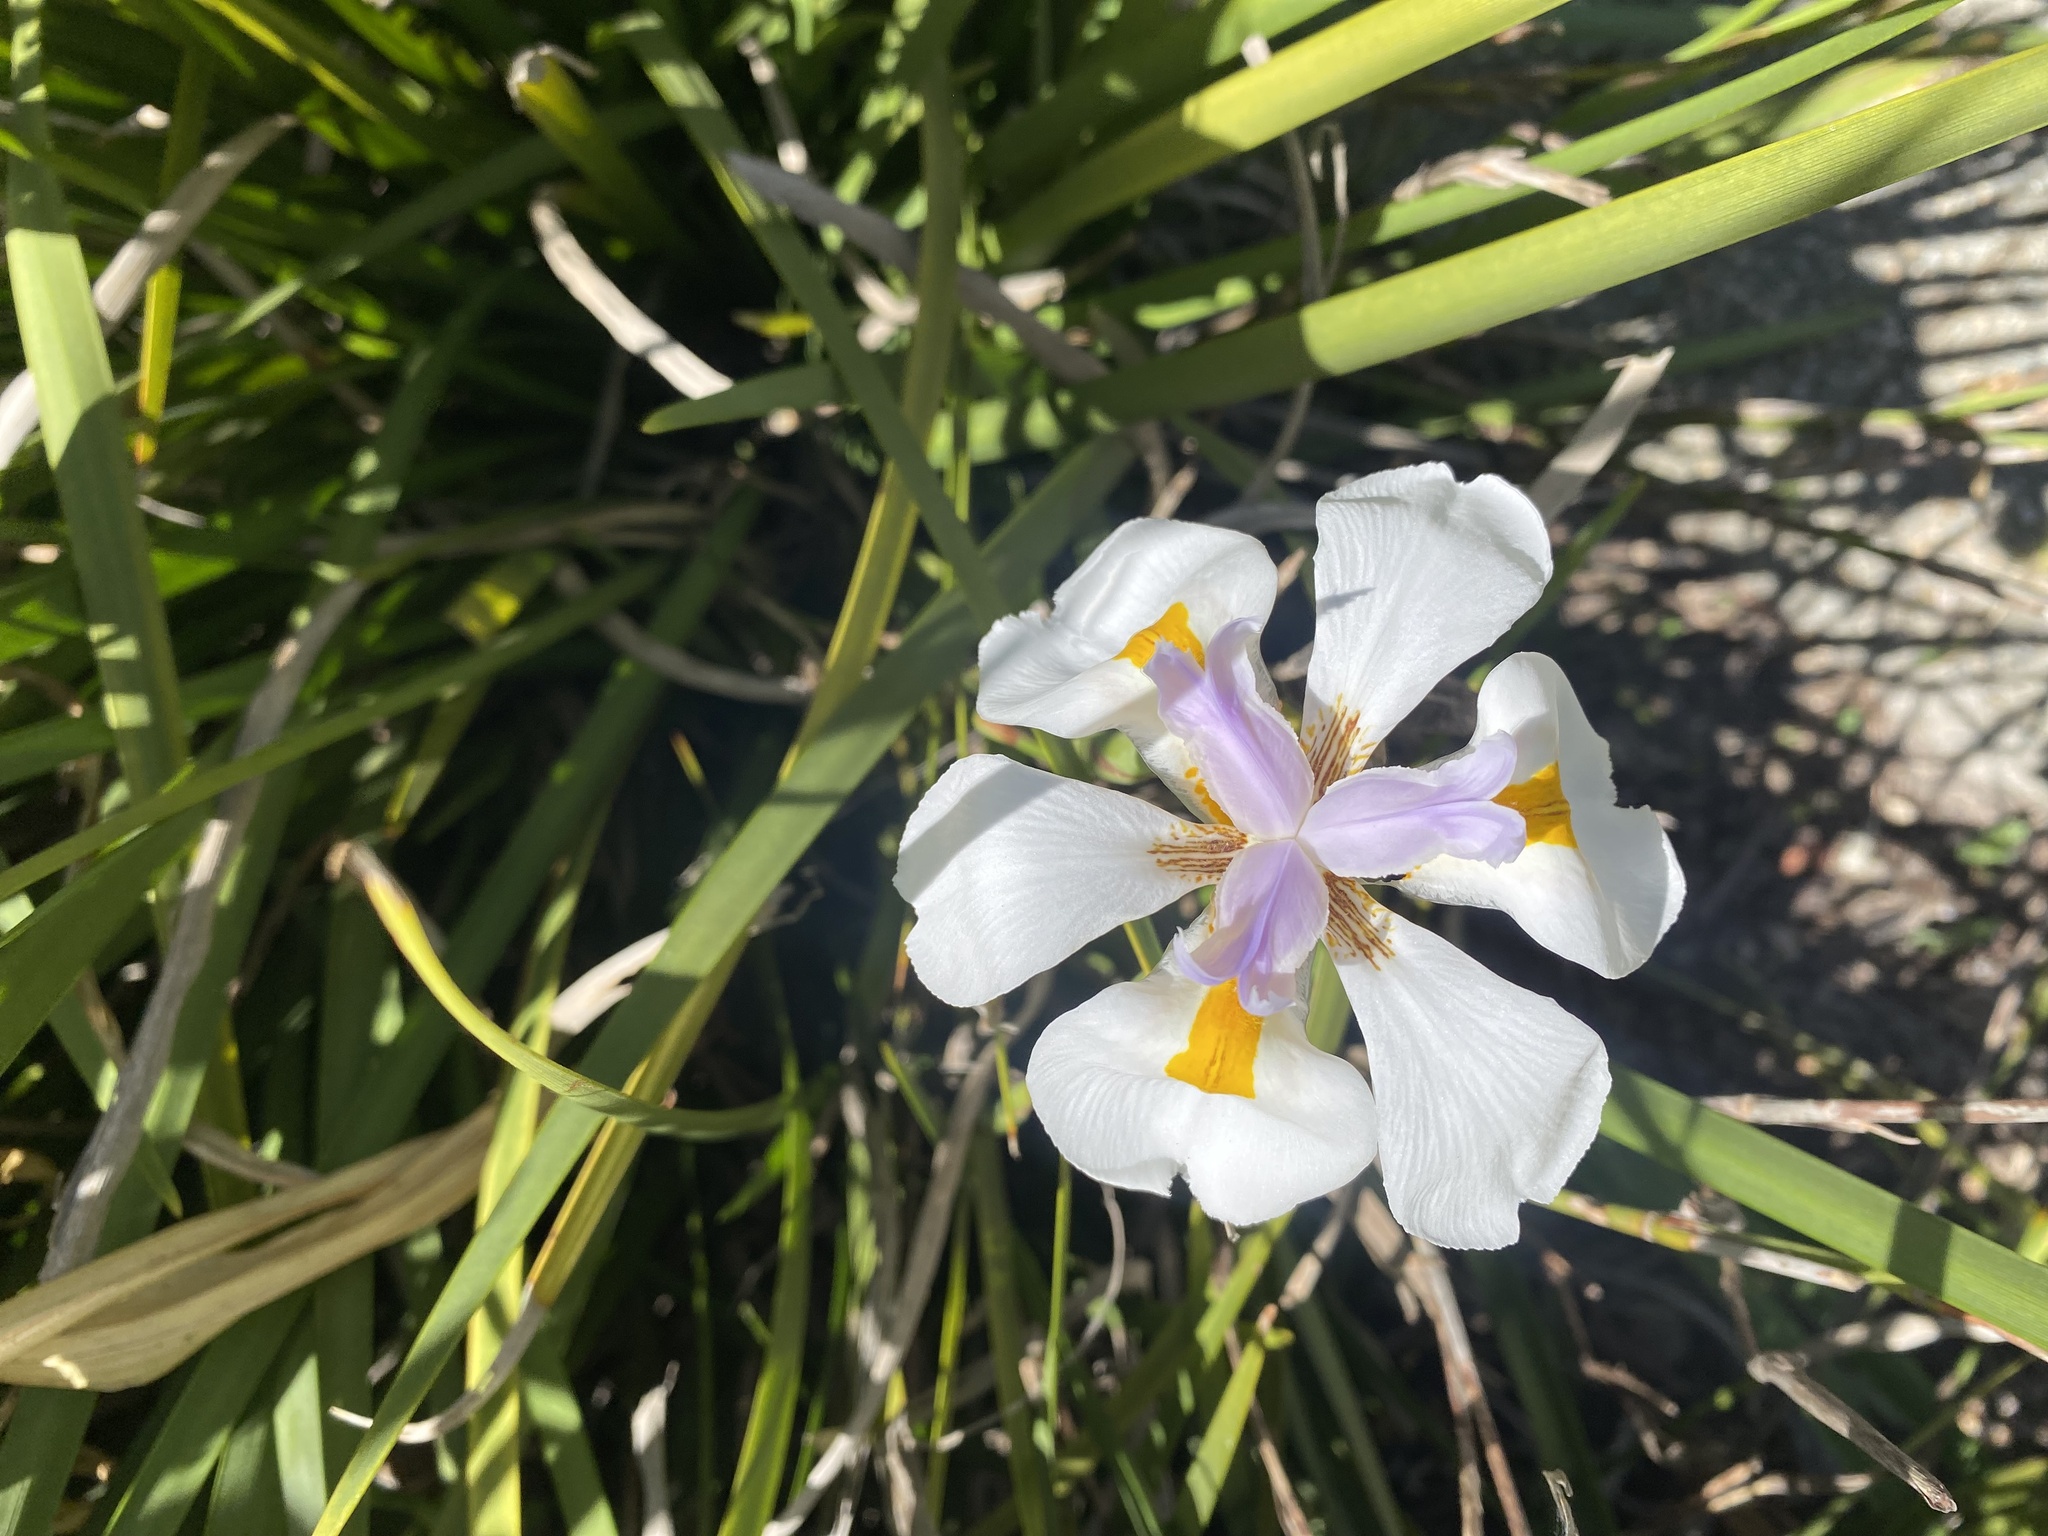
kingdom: Plantae
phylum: Tracheophyta
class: Liliopsida
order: Asparagales
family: Iridaceae
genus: Dietes
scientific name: Dietes grandiflora
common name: Wild iris
